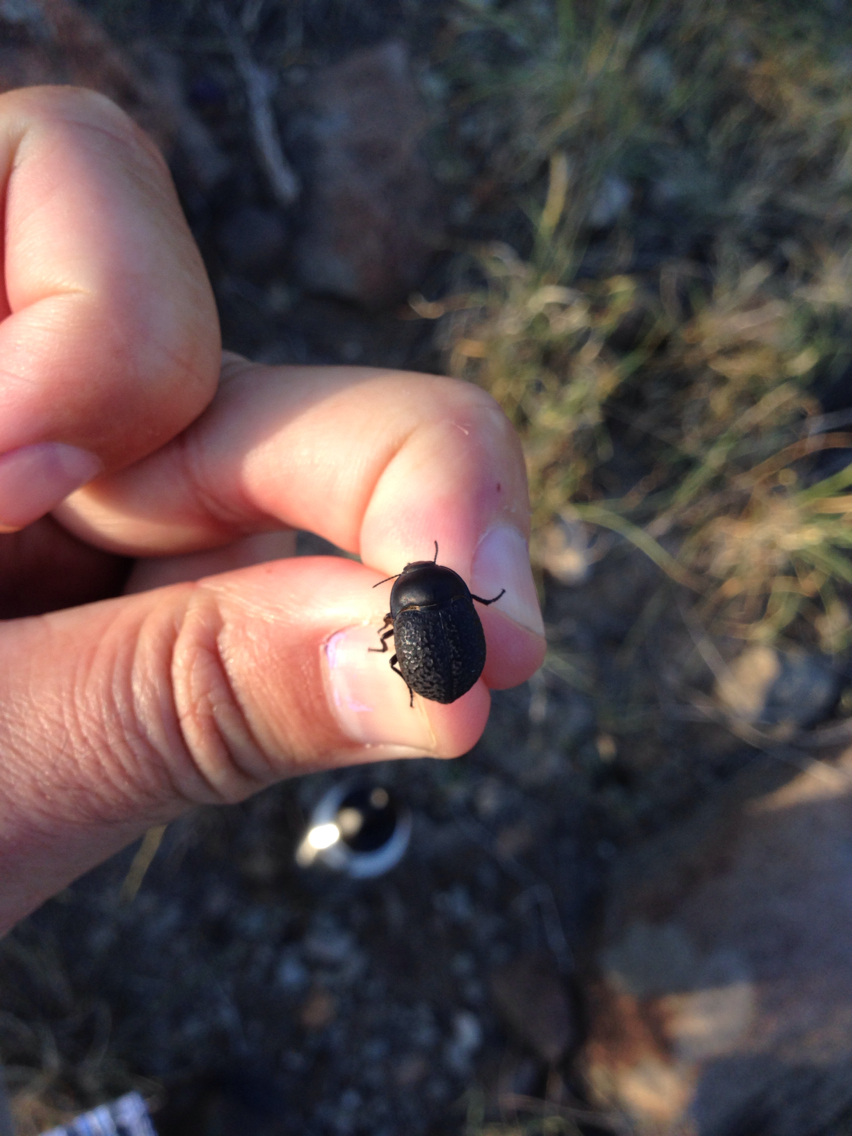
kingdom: Animalia
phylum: Arthropoda
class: Insecta
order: Coleoptera
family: Tenebrionidae
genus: Eusattus
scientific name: Eusattus pons
